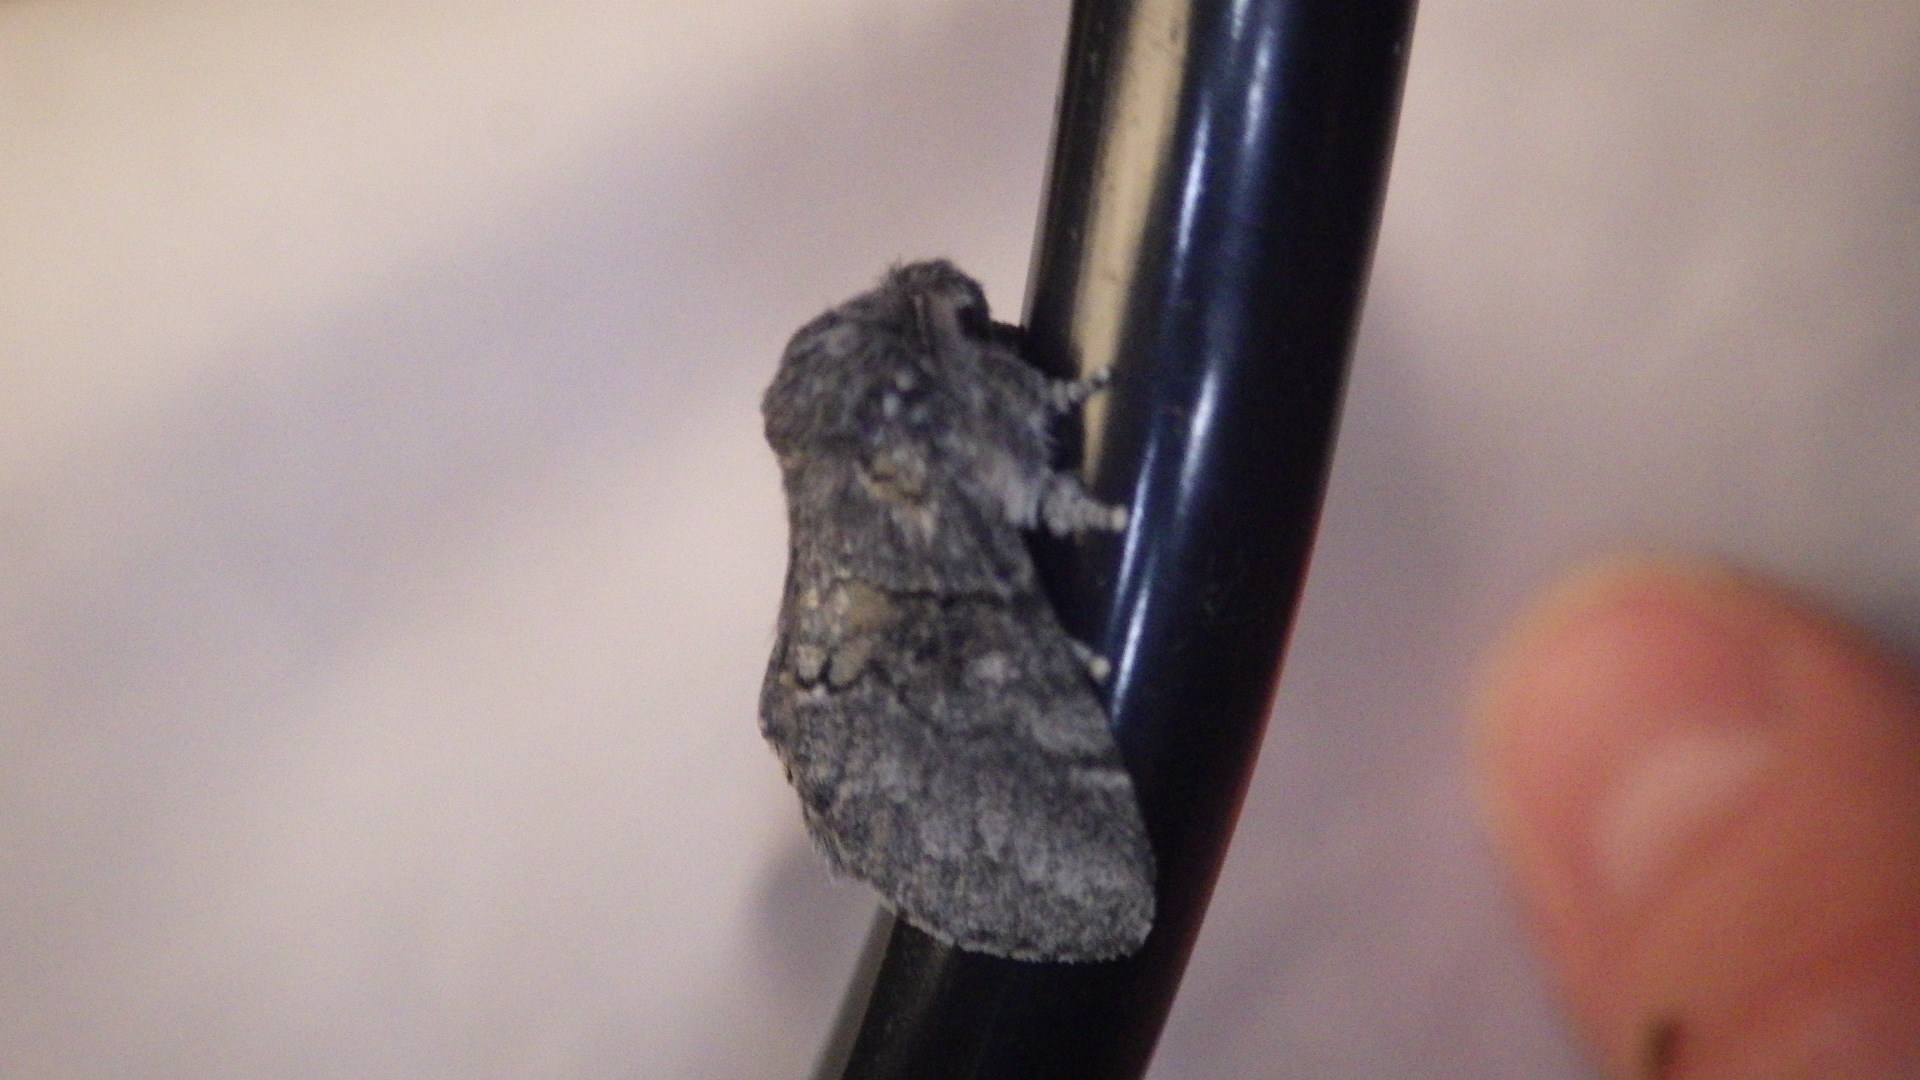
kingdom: Animalia
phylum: Arthropoda
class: Insecta
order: Lepidoptera
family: Notodontidae
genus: Gluphisia
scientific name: Gluphisia septentrionis
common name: Common gluphisia
